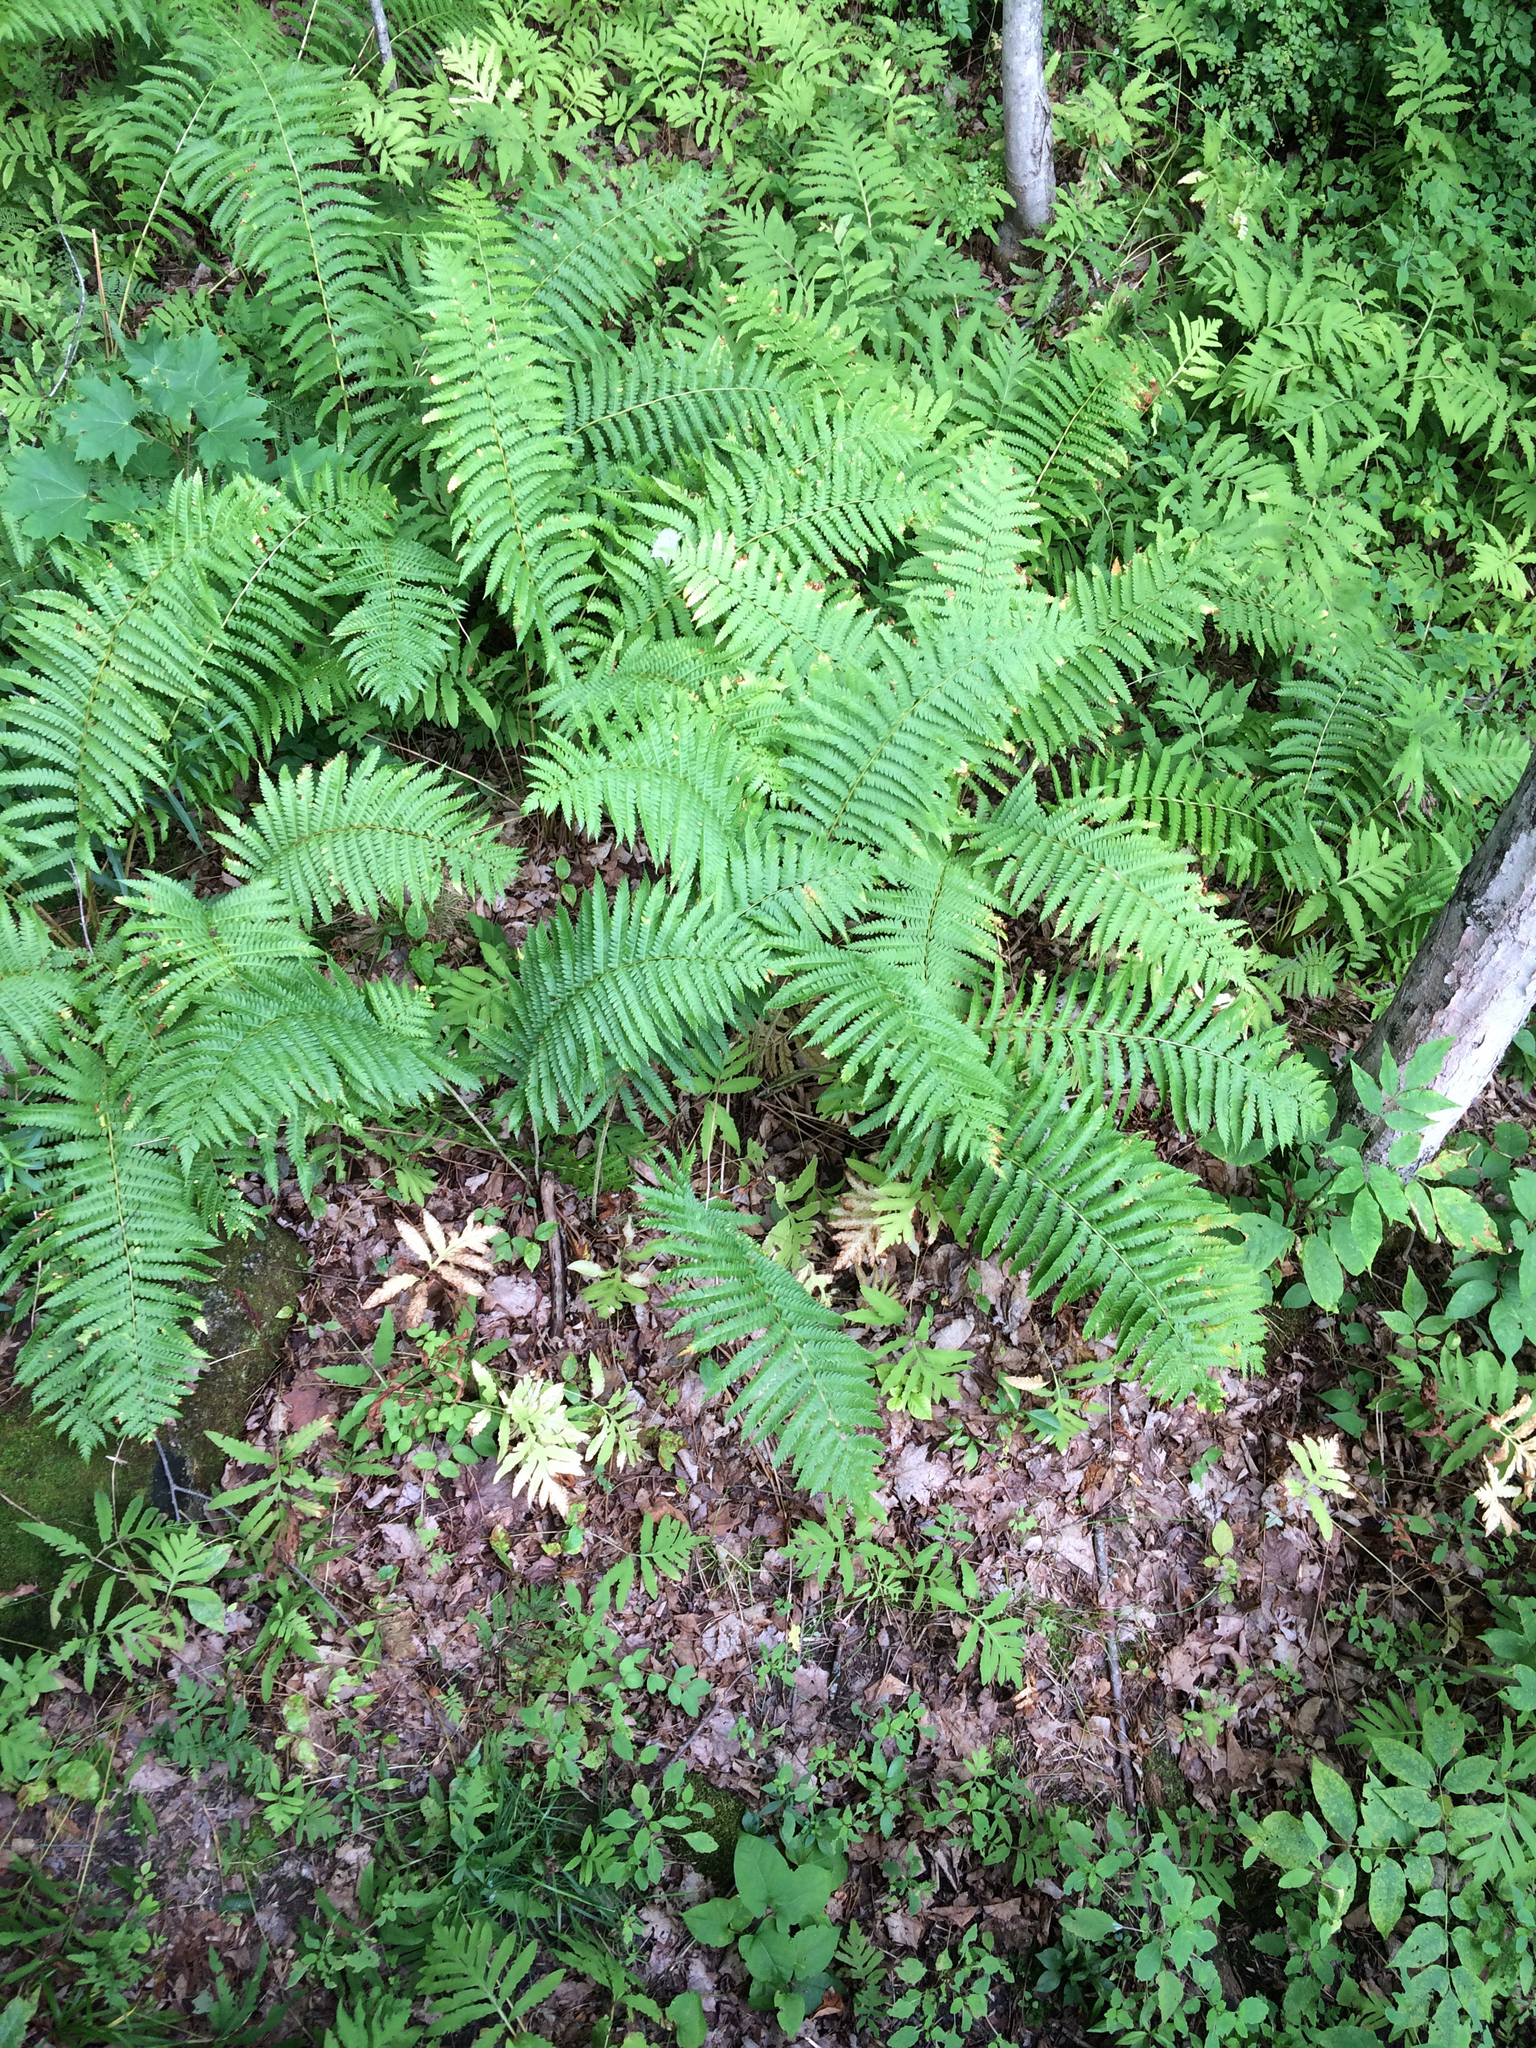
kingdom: Plantae
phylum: Tracheophyta
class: Polypodiopsida
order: Polypodiales
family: Athyriaceae
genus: Deparia
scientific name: Deparia acrostichoides
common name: Silver false spleenwort
